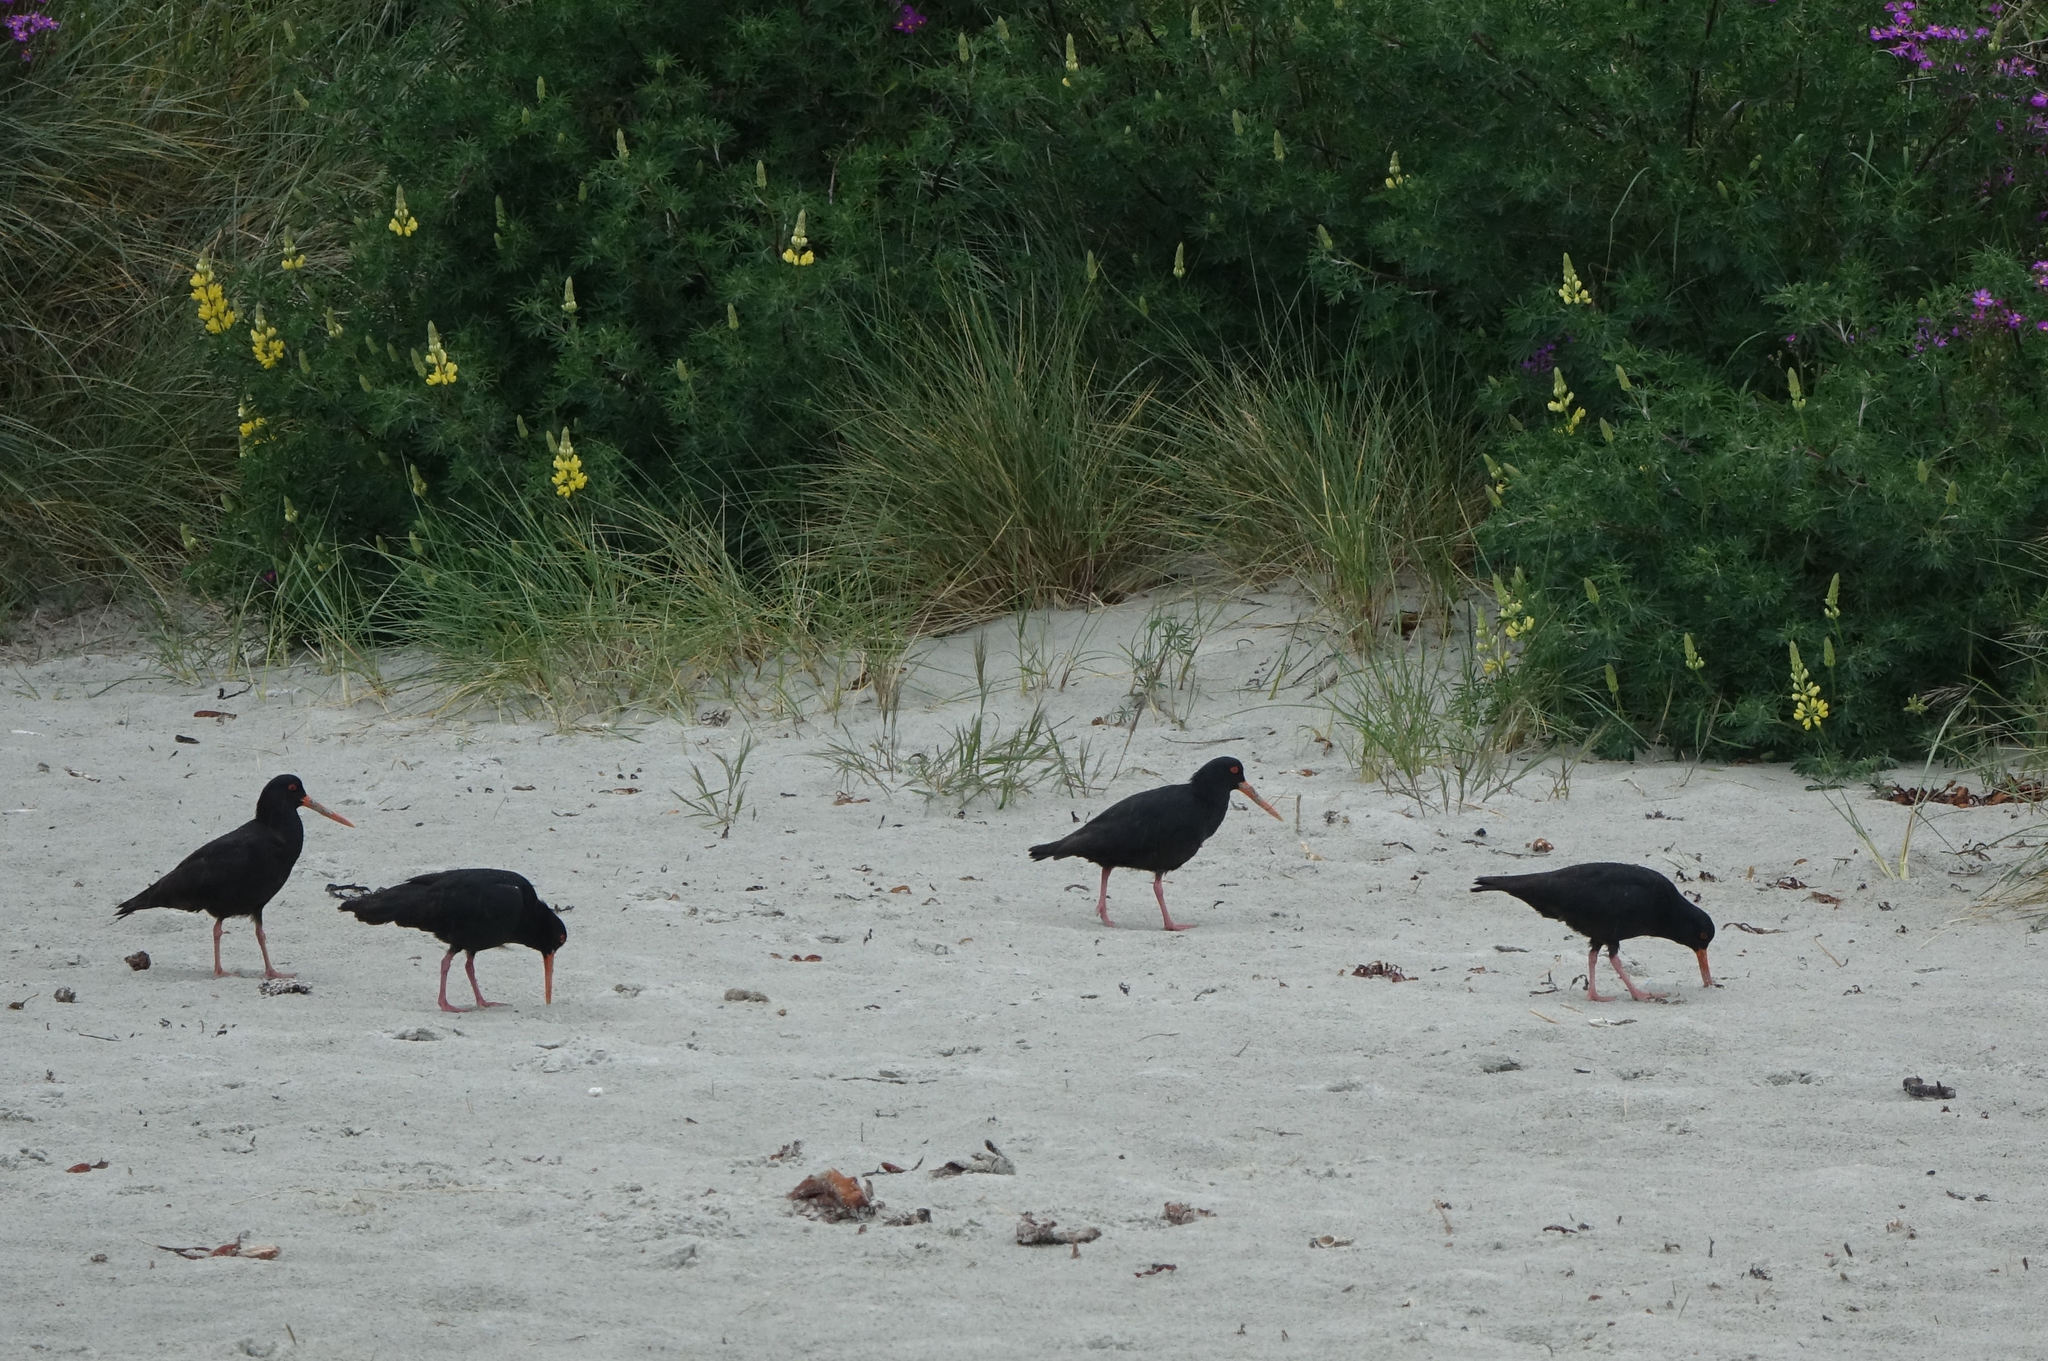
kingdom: Animalia
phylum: Chordata
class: Aves
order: Charadriiformes
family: Haematopodidae
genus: Haematopus
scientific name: Haematopus unicolor
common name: Variable oystercatcher
